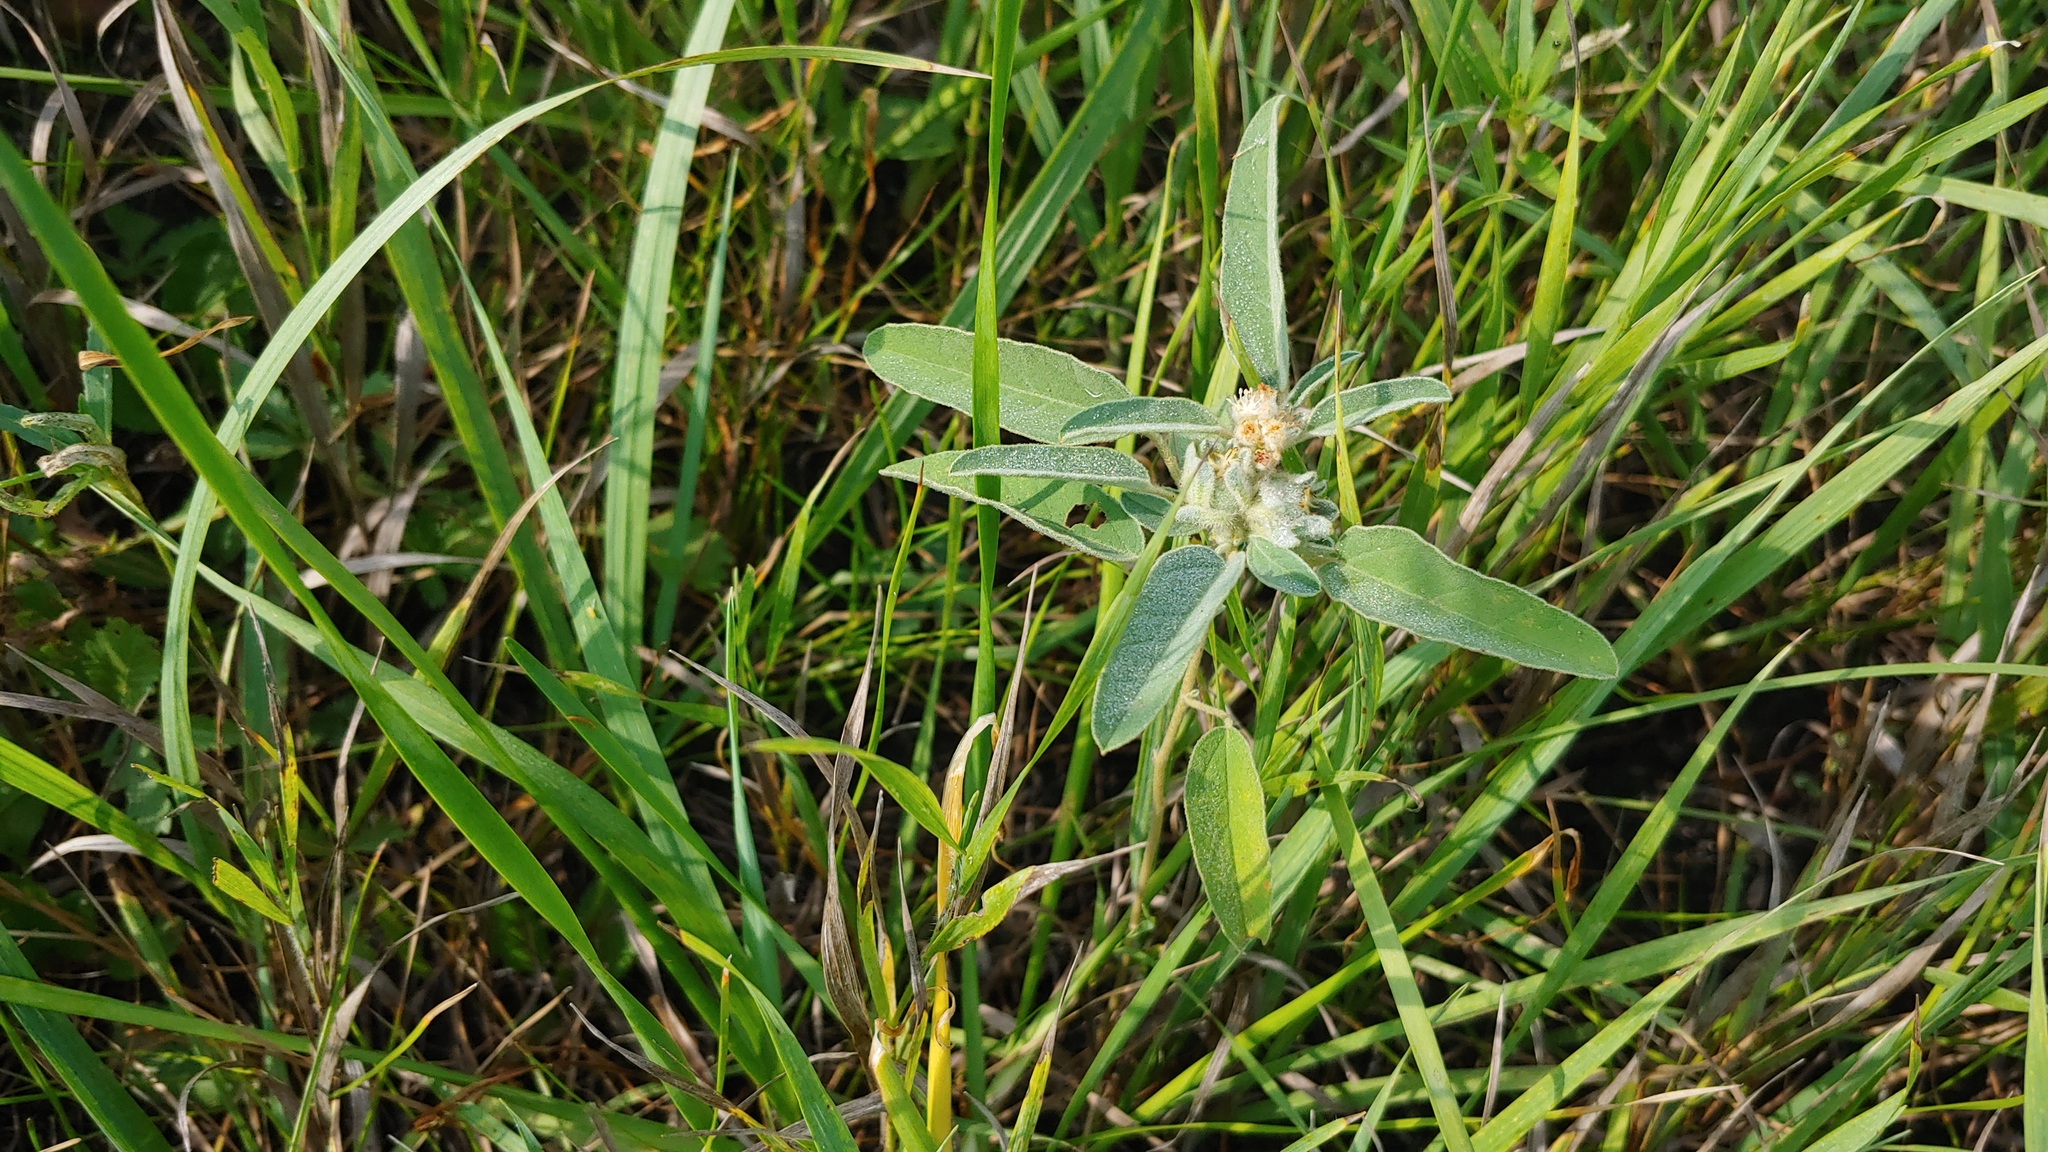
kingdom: Plantae
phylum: Tracheophyta
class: Magnoliopsida
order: Malpighiales
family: Euphorbiaceae
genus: Croton
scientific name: Croton capitatus
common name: Woolly croton
